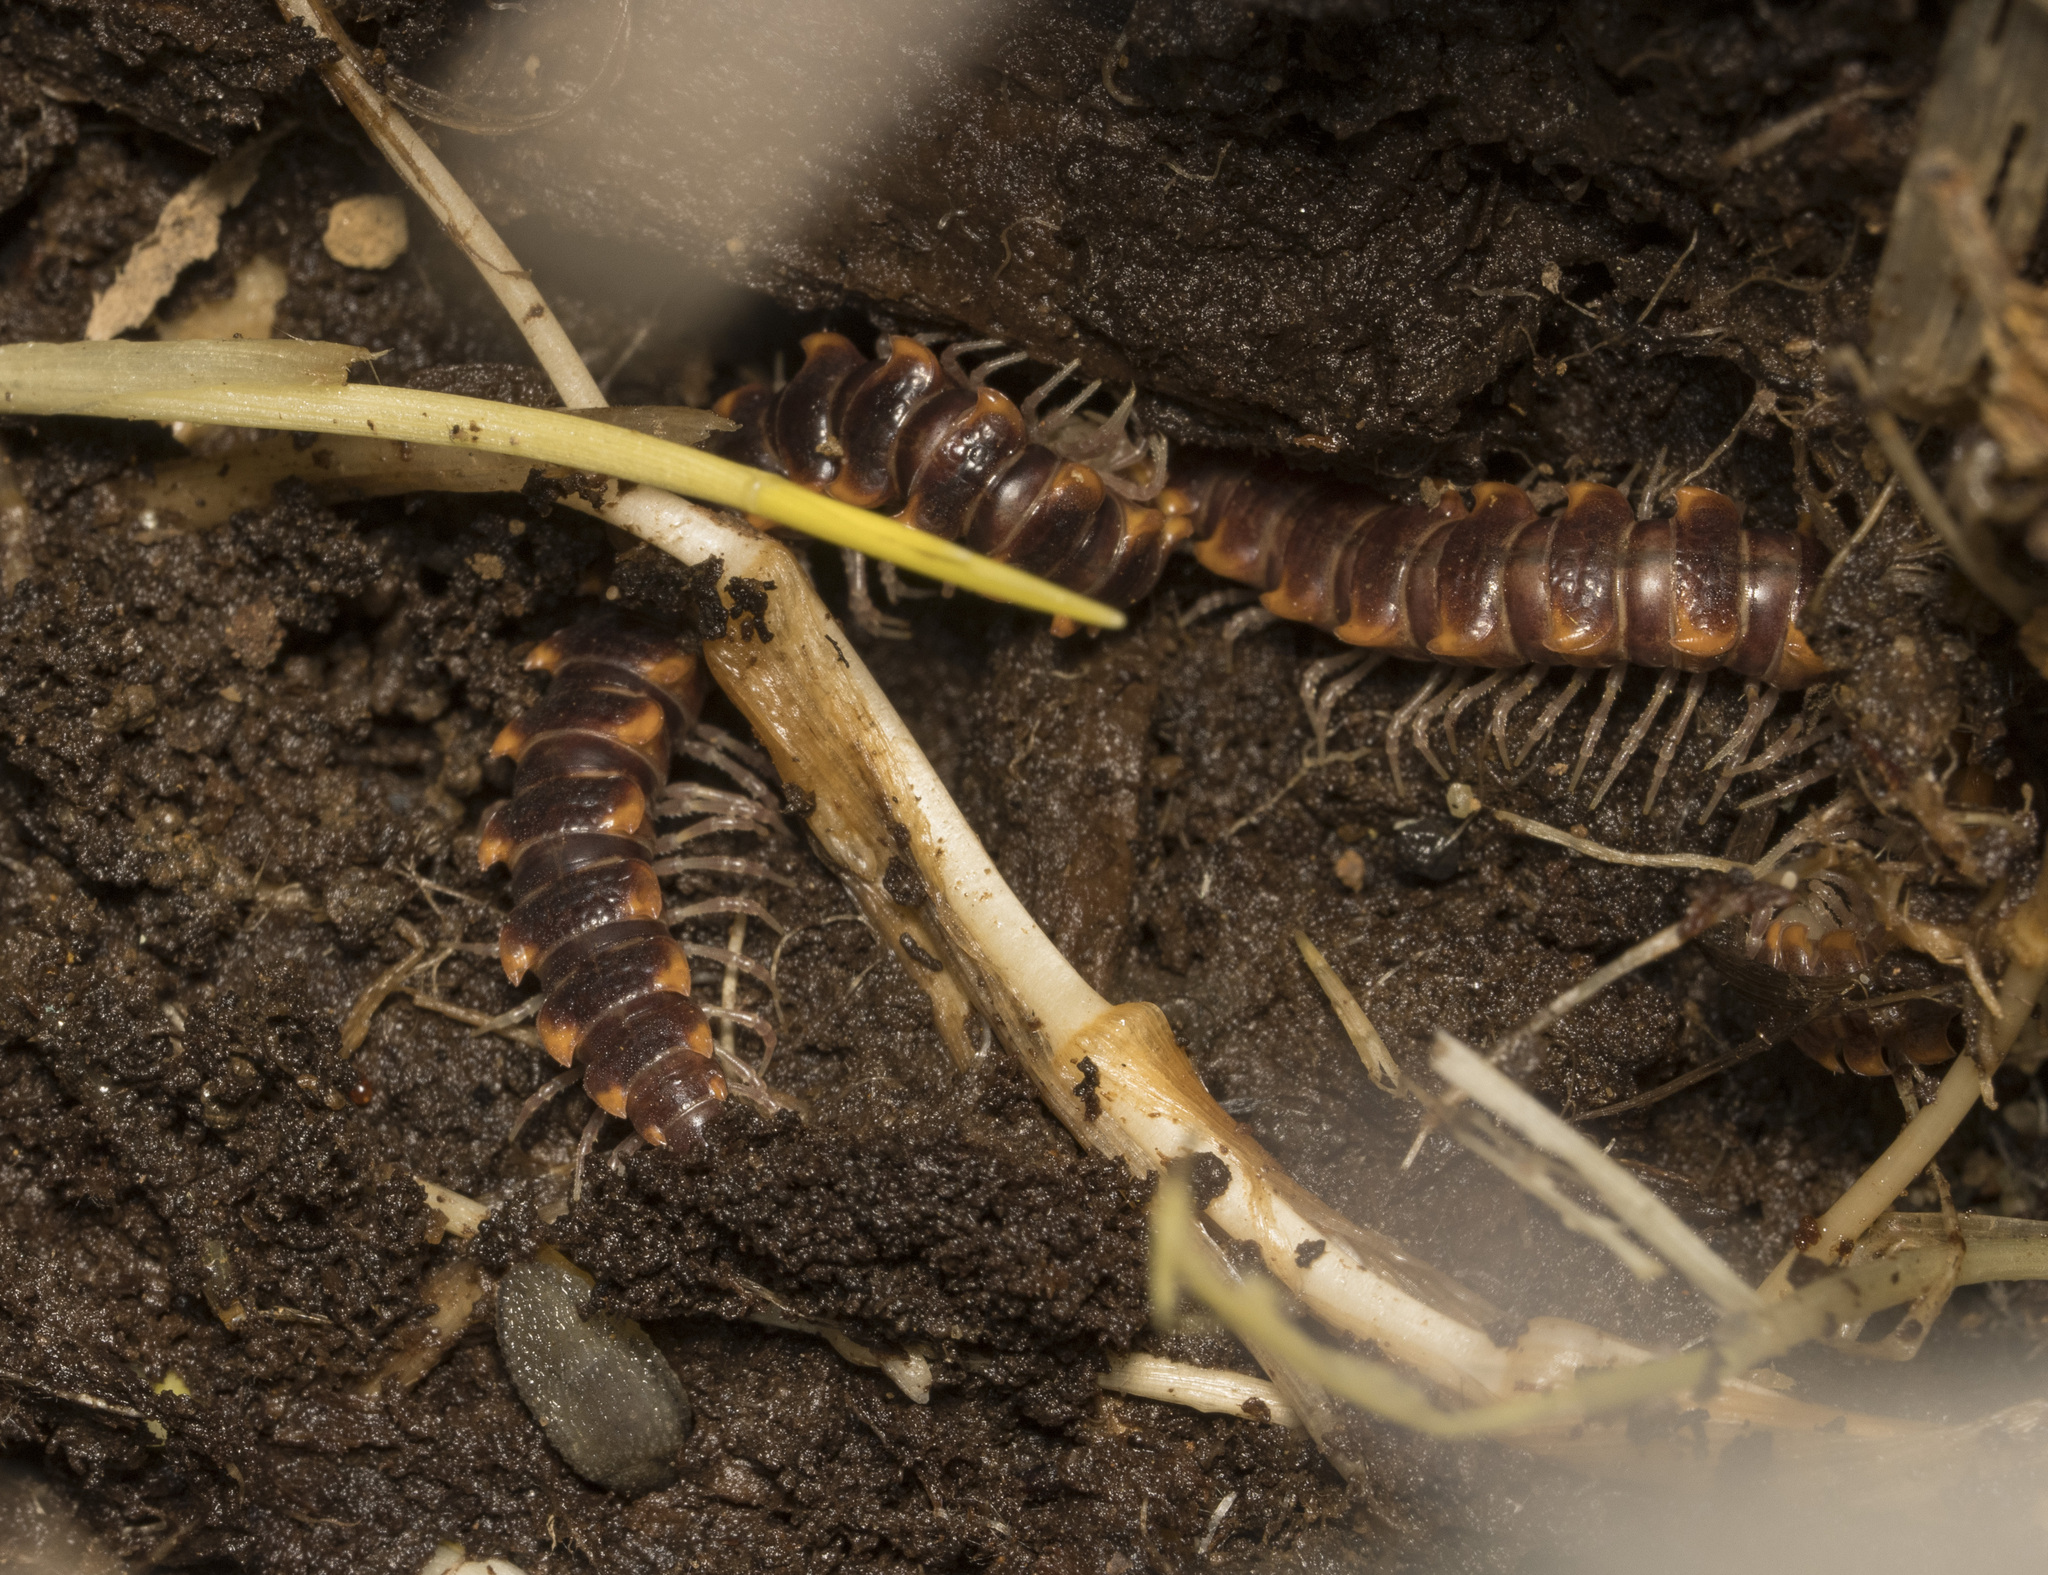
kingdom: Animalia
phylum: Arthropoda
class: Diplopoda
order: Polydesmida
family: Dalodesmidae
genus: Monenchodesmus
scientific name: Monenchodesmus inermis
